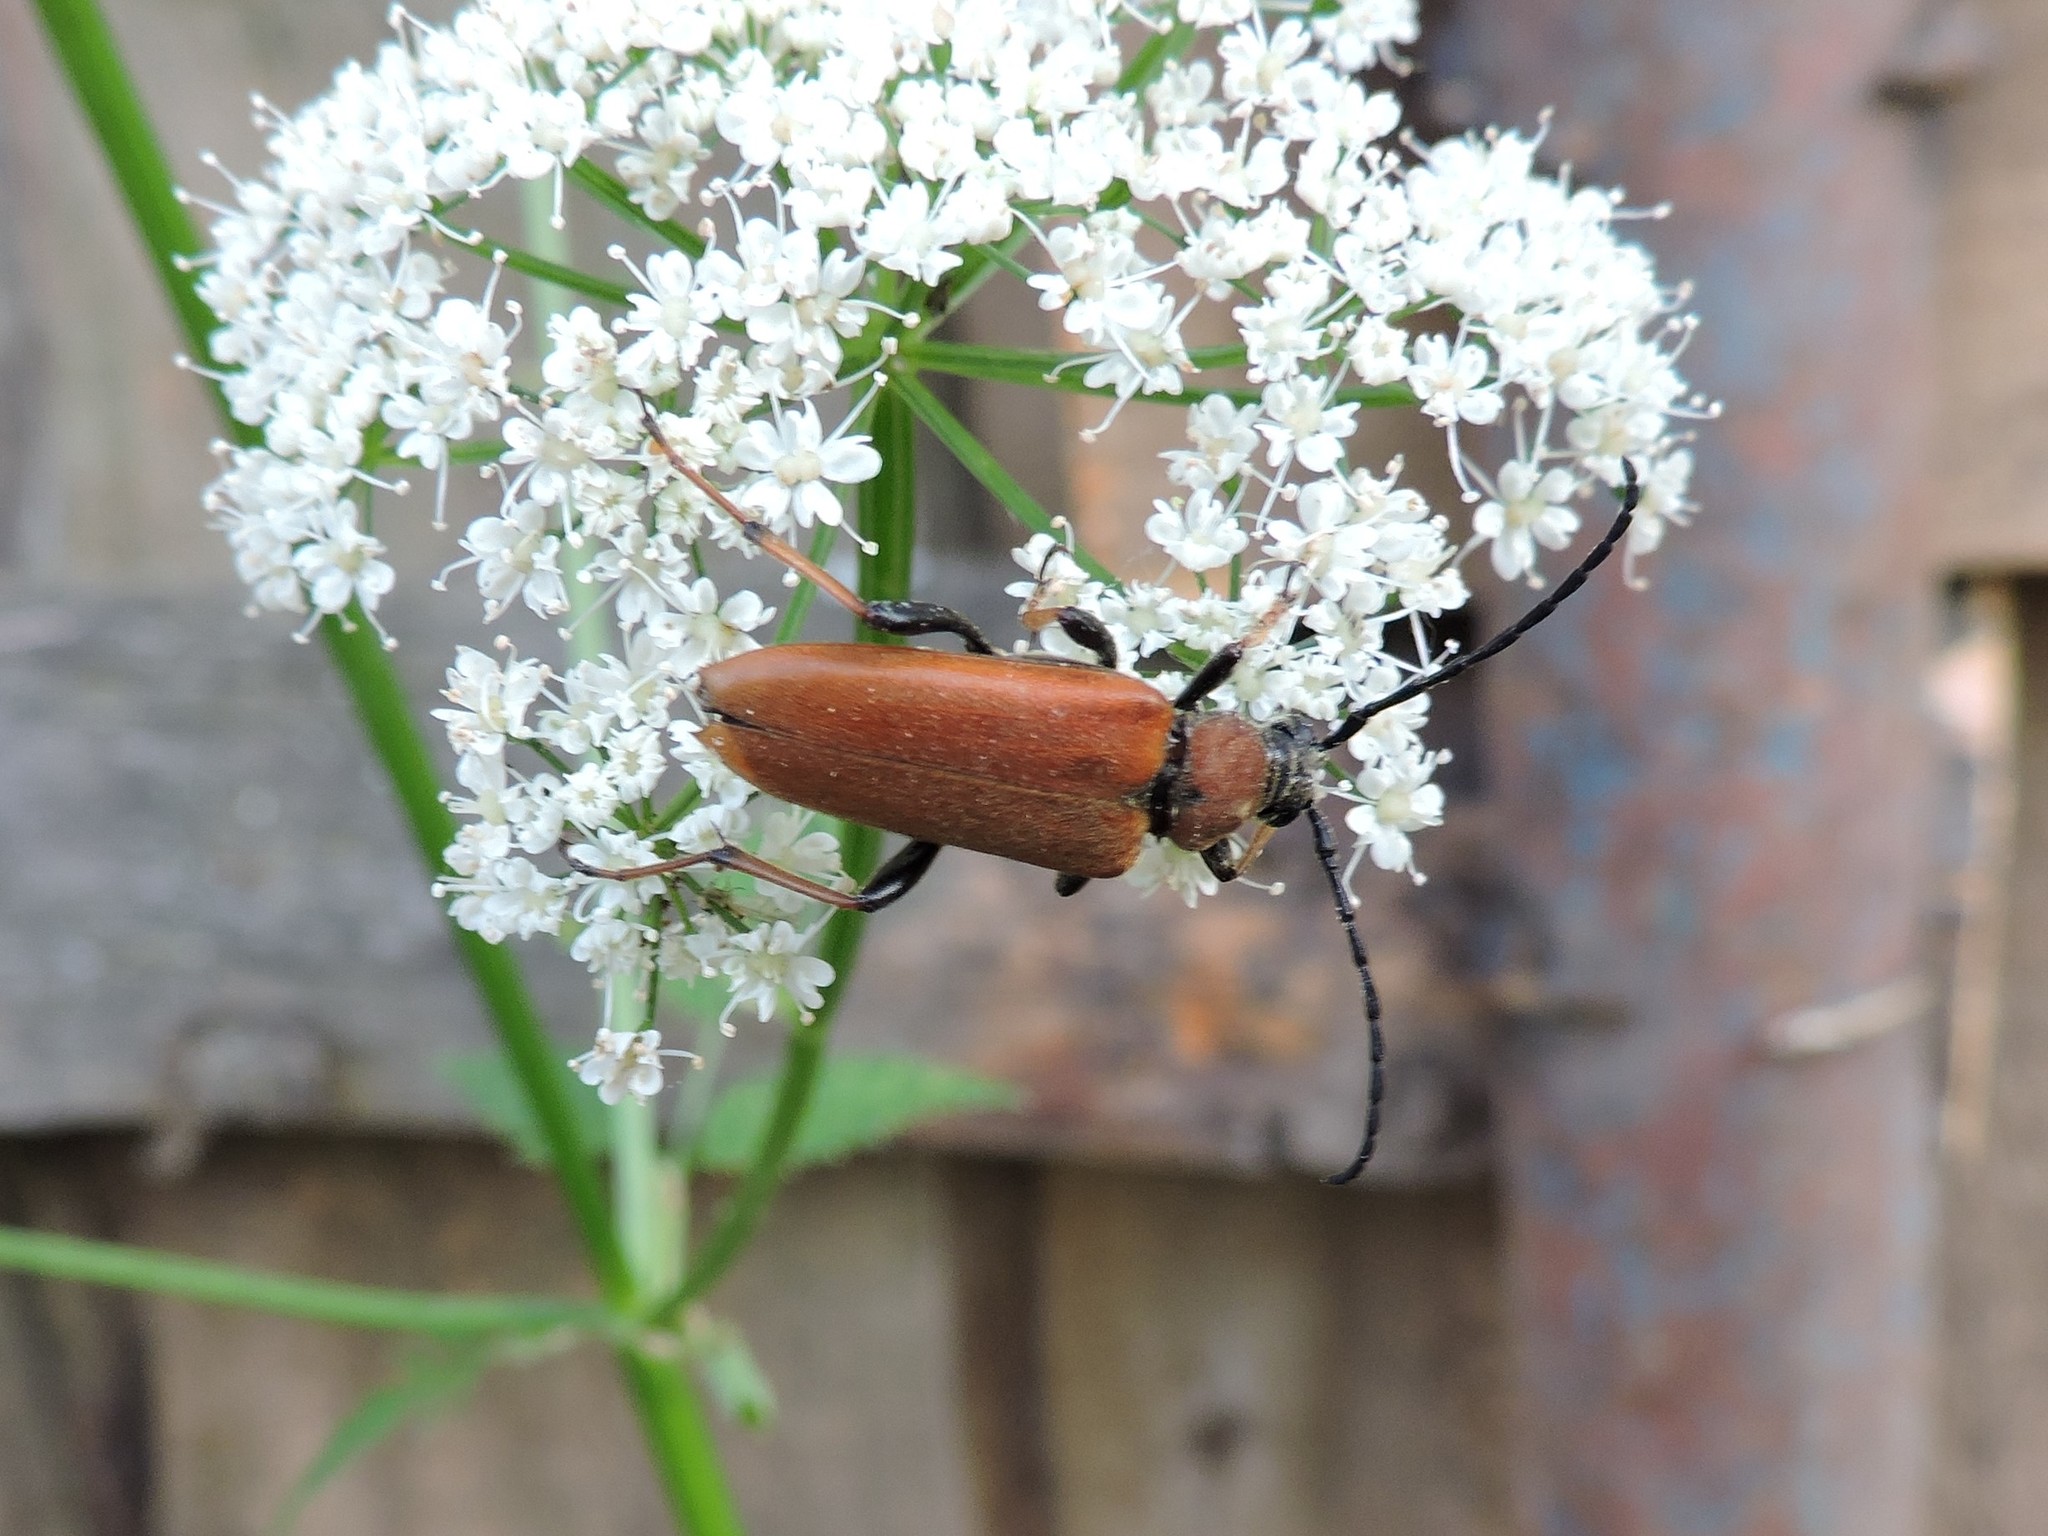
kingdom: Animalia
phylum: Arthropoda
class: Insecta
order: Coleoptera
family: Cerambycidae
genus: Stictoleptura
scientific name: Stictoleptura rubra
